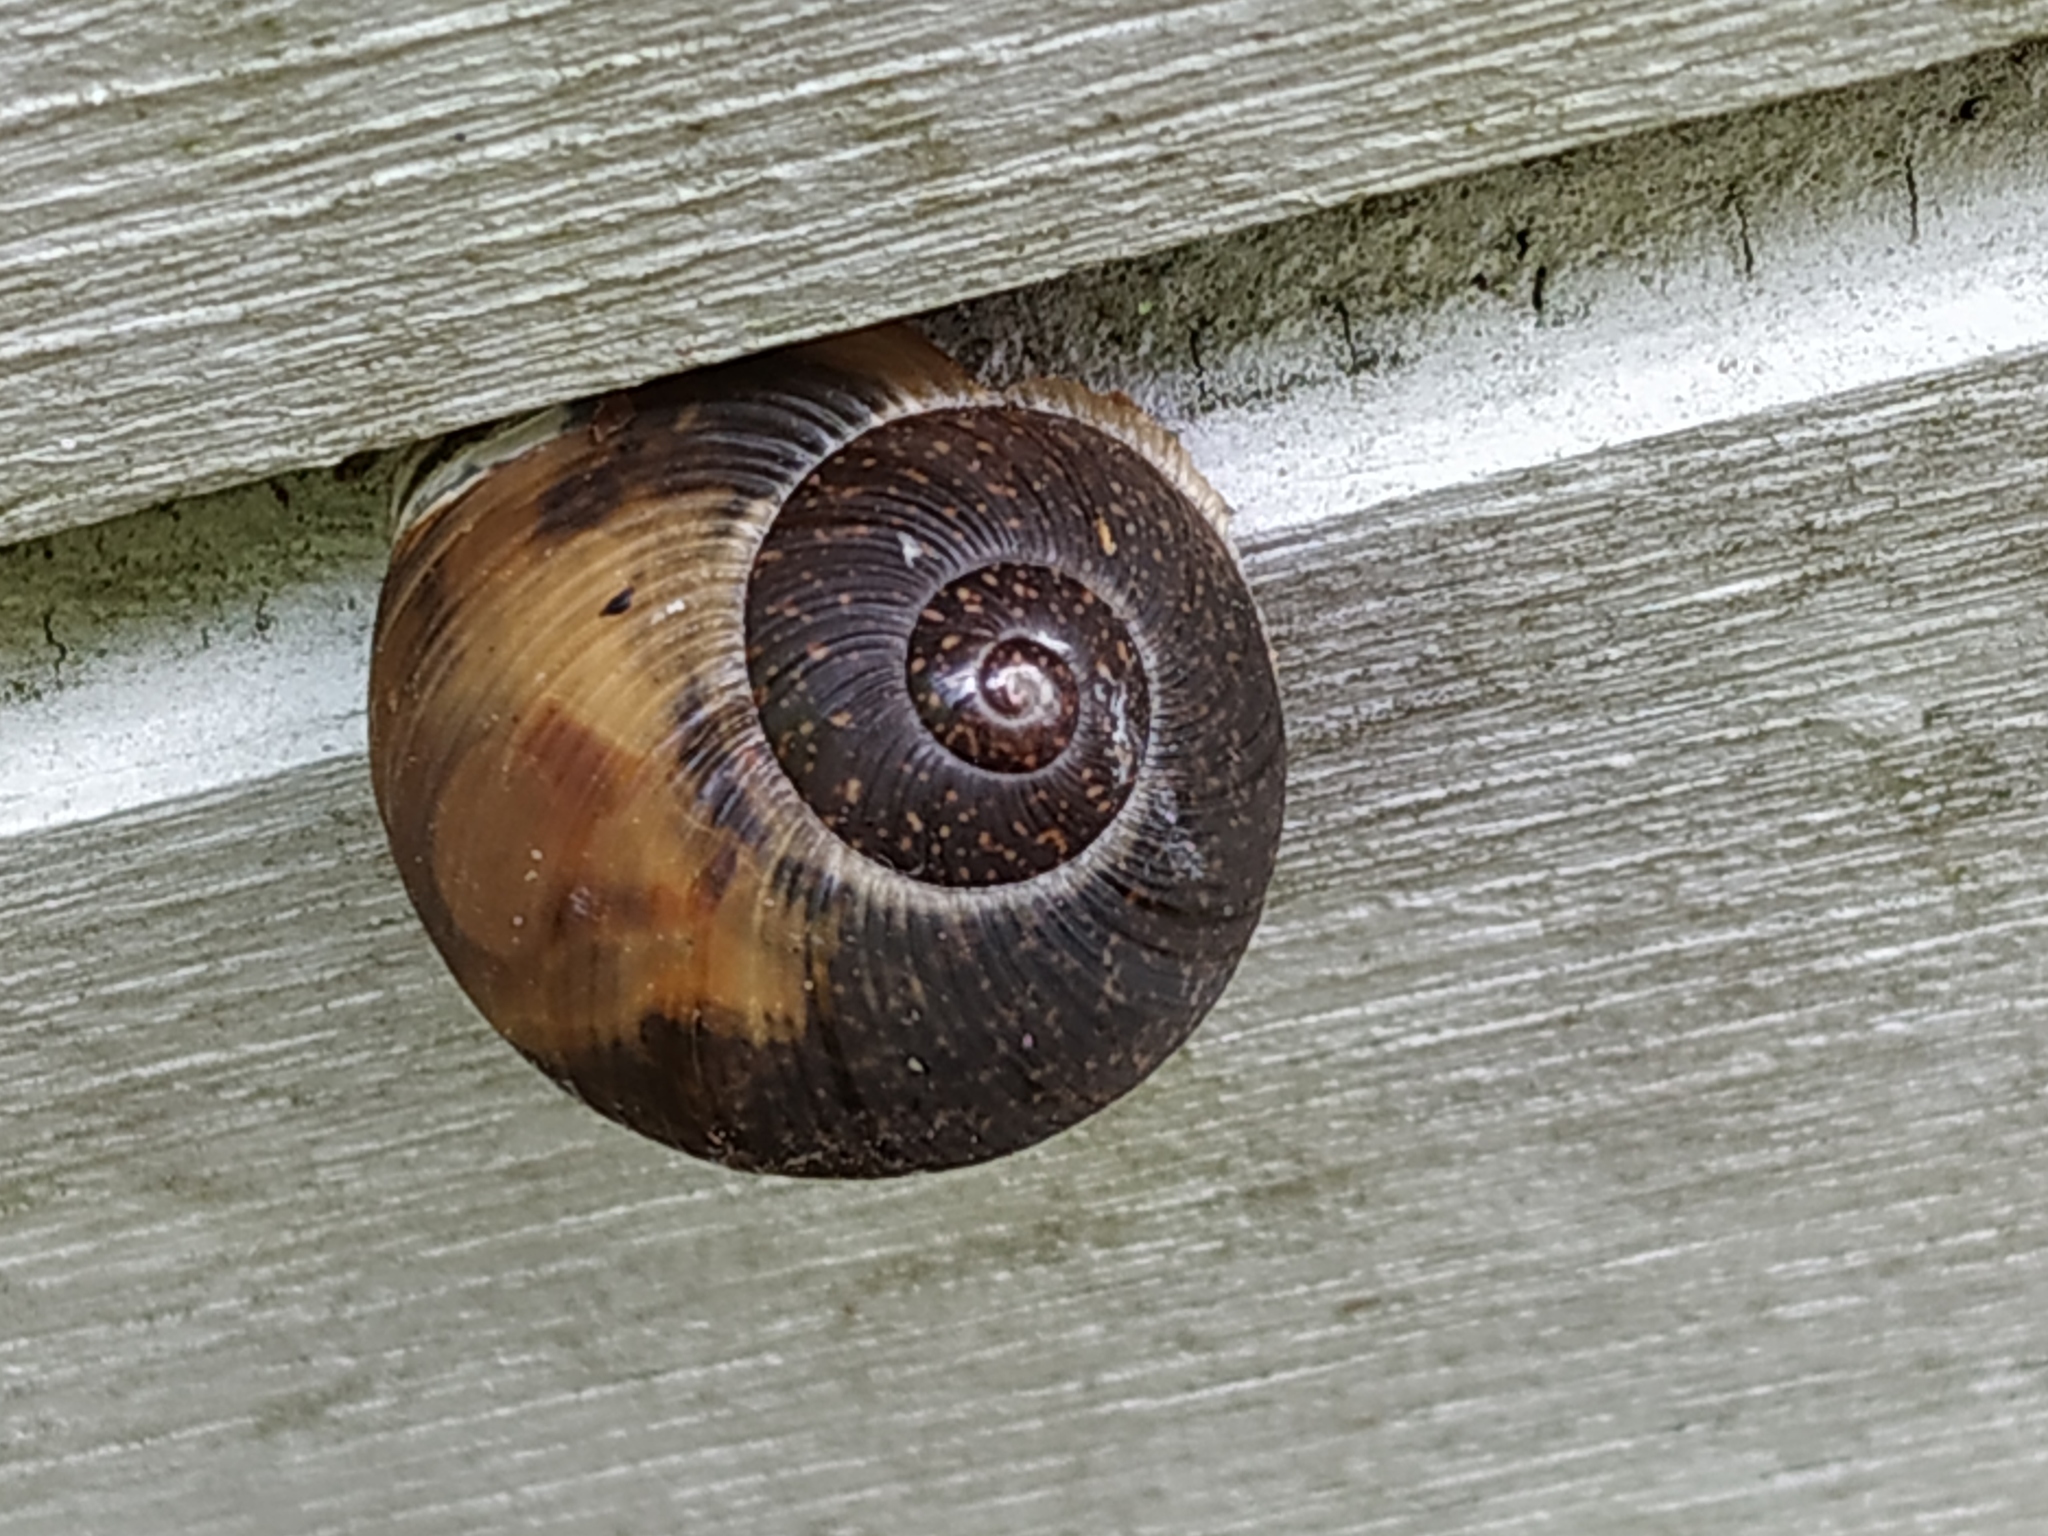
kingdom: Animalia
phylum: Mollusca
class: Gastropoda
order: Stylommatophora
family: Zachrysiidae
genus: Zachrysia
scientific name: Zachrysia provisoria
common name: Garden zachrysia
